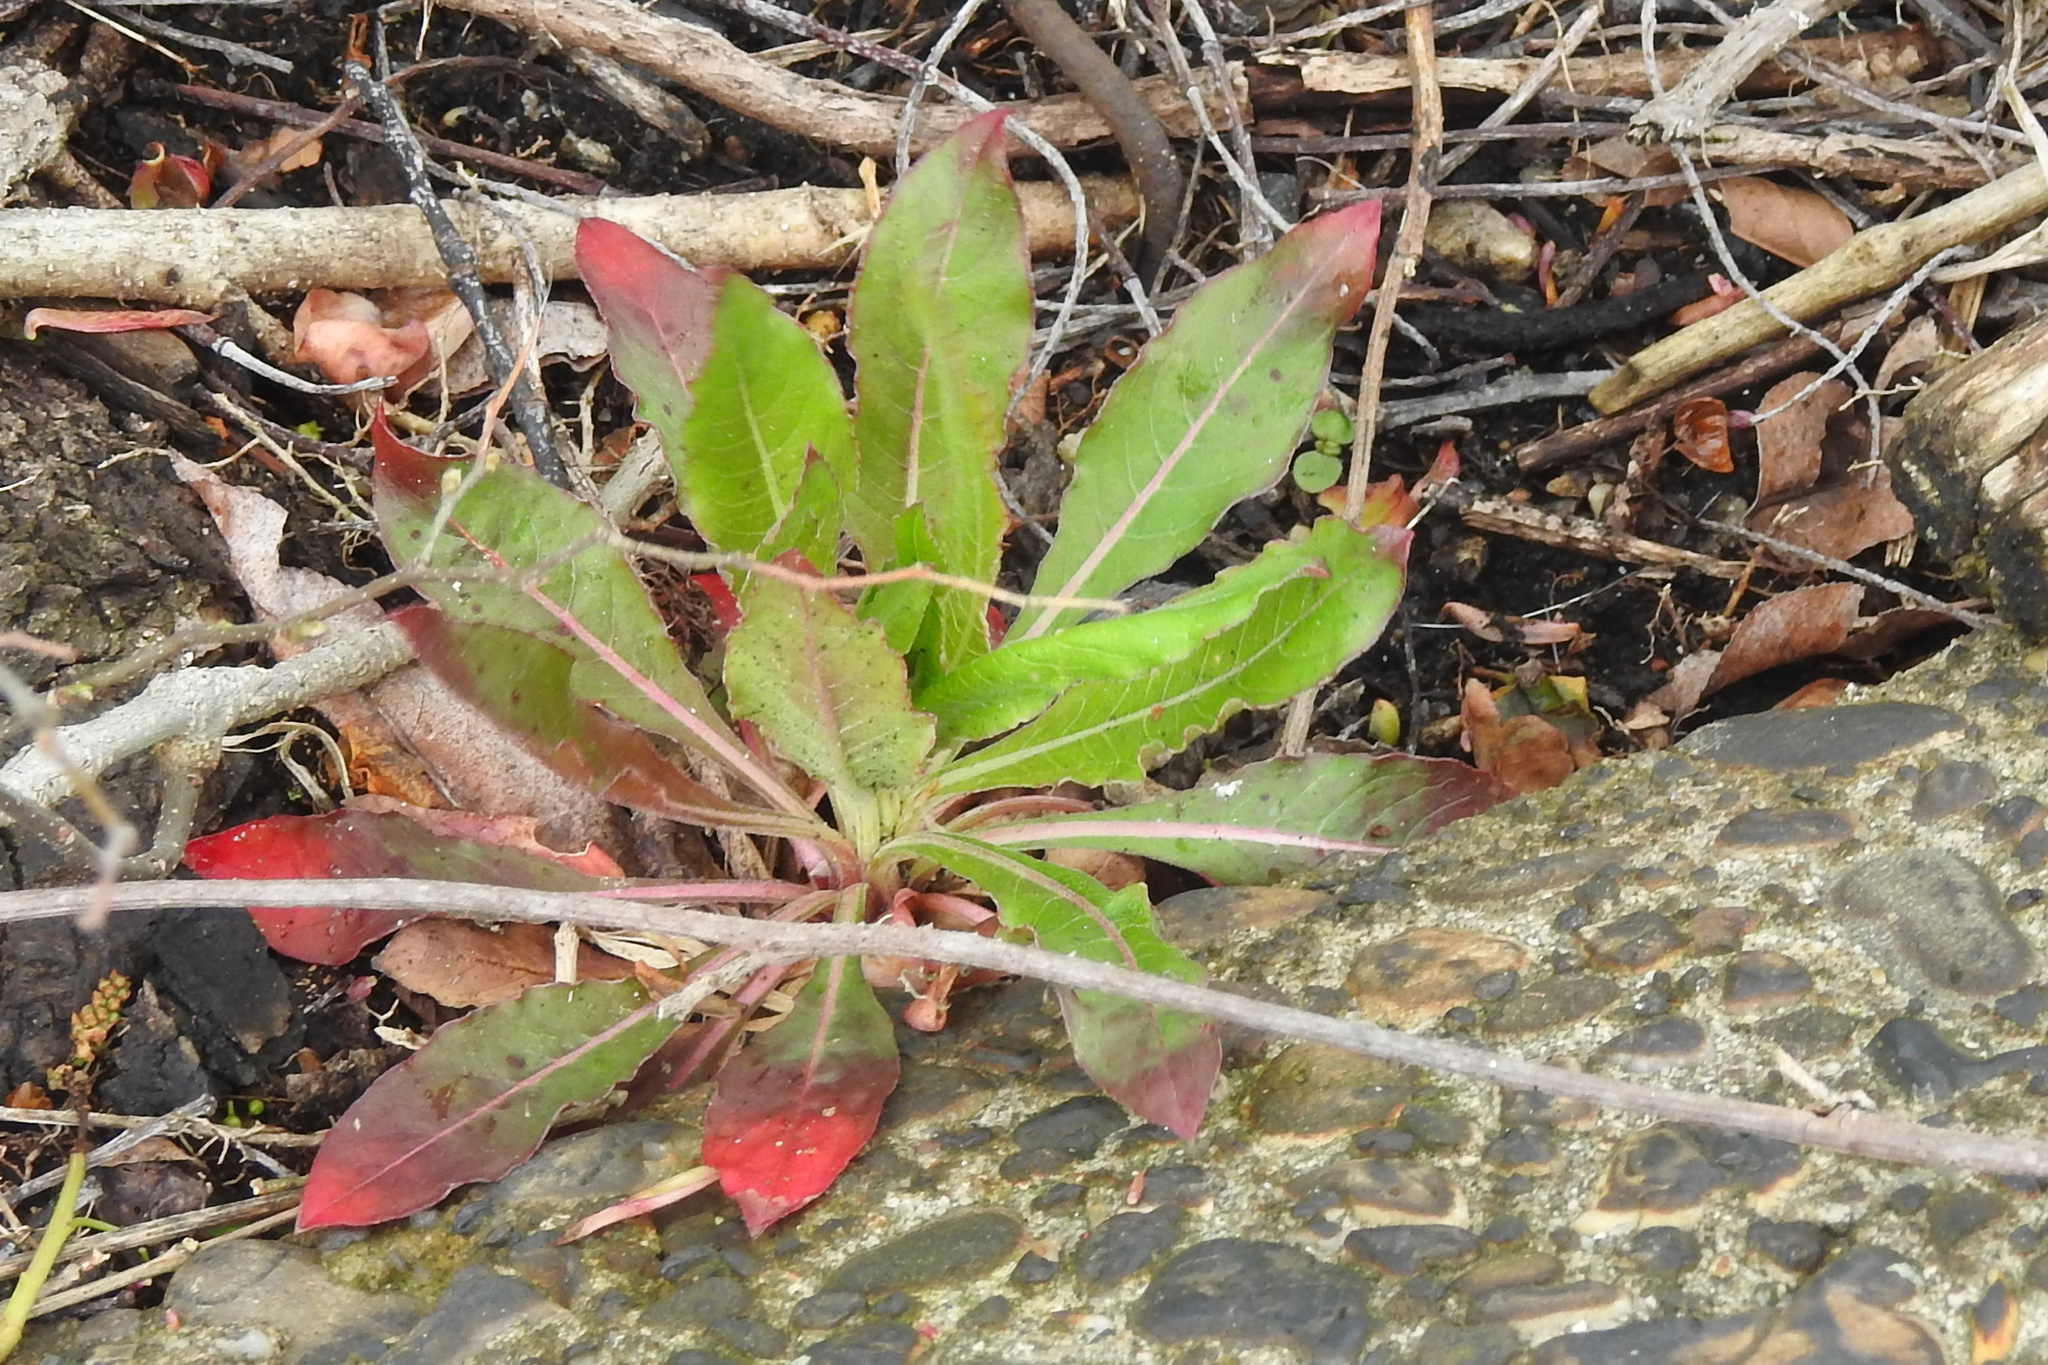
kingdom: Plantae
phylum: Tracheophyta
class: Magnoliopsida
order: Myrtales
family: Onagraceae
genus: Oenothera
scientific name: Oenothera biennis
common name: Common evening-primrose
